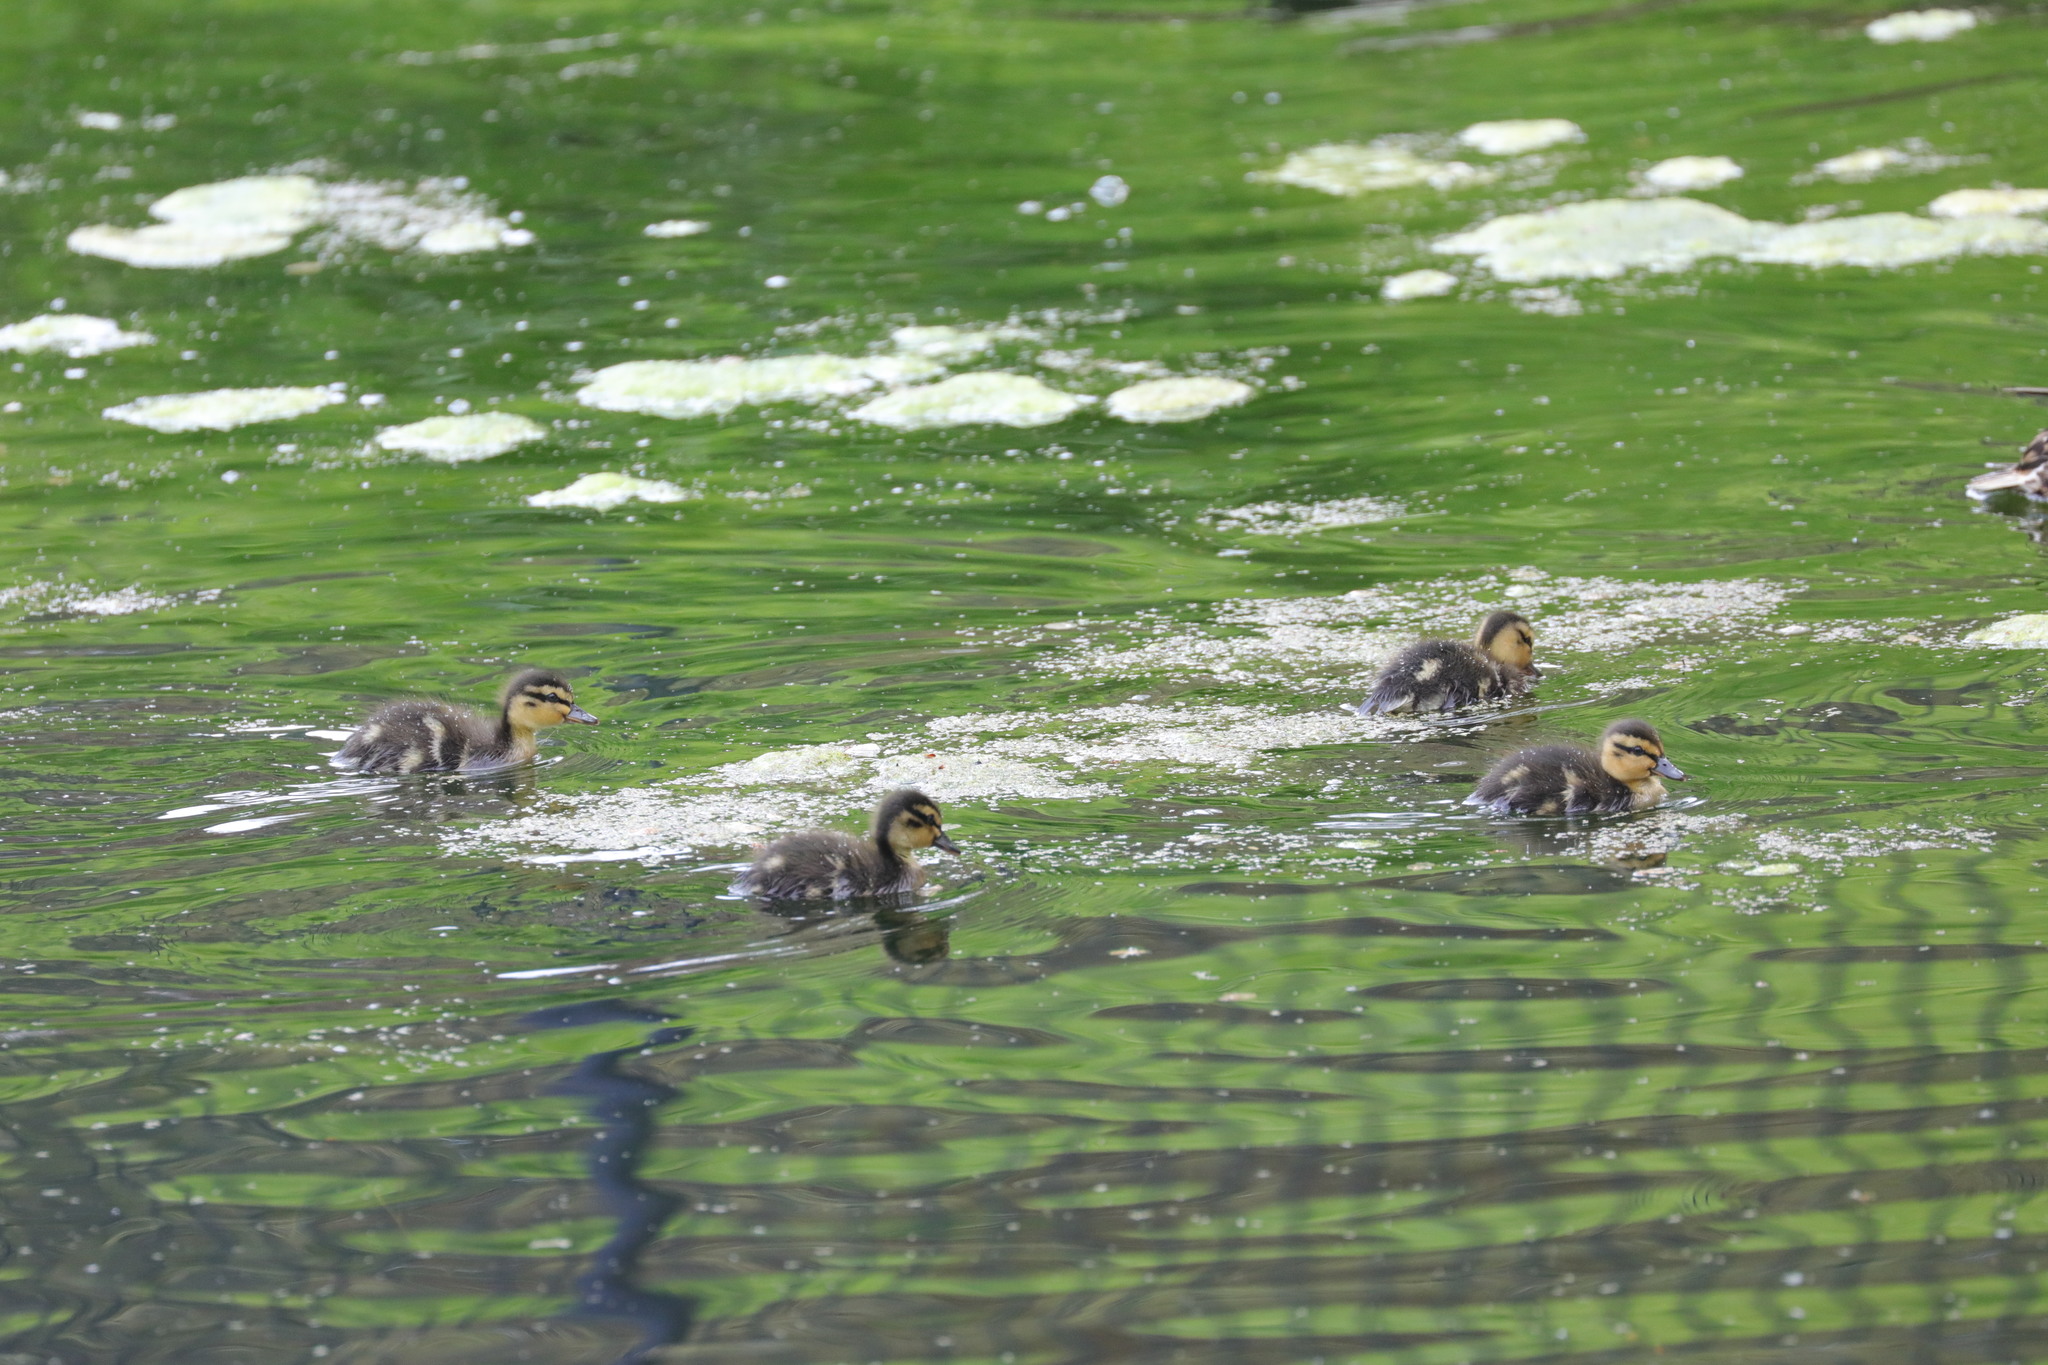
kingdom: Animalia
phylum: Chordata
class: Aves
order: Anseriformes
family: Anatidae
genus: Anas
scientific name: Anas platyrhynchos
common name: Mallard
